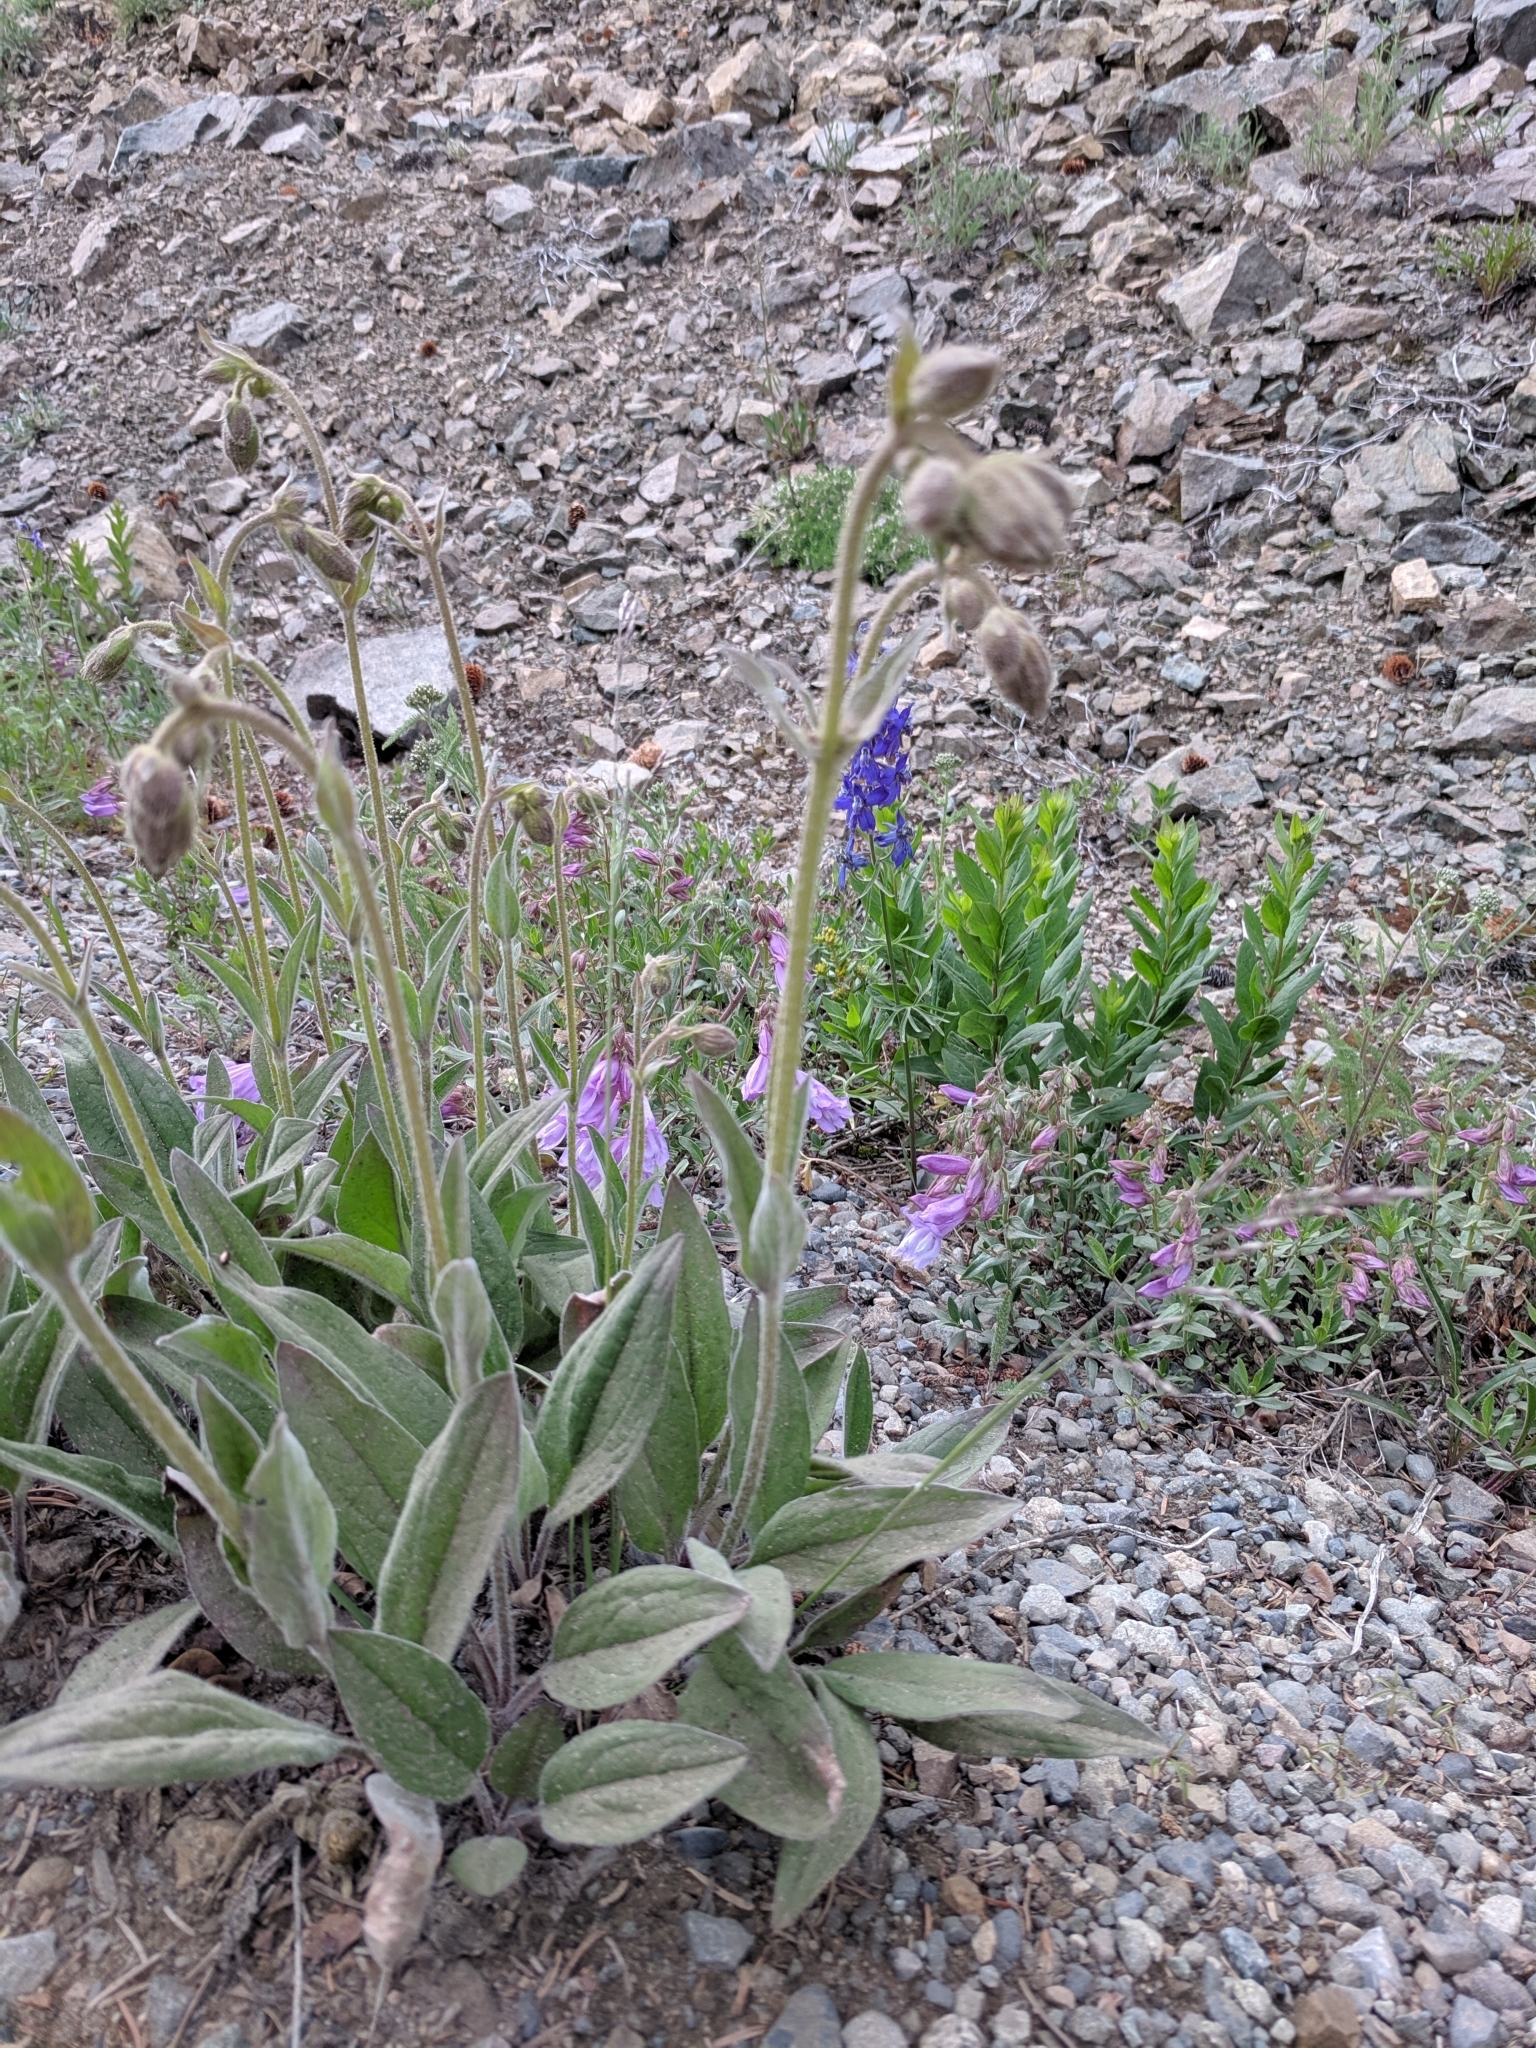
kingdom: Plantae
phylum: Tracheophyta
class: Magnoliopsida
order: Asterales
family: Asteraceae
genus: Arnica
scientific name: Arnica parryi
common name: Parry's arnica
